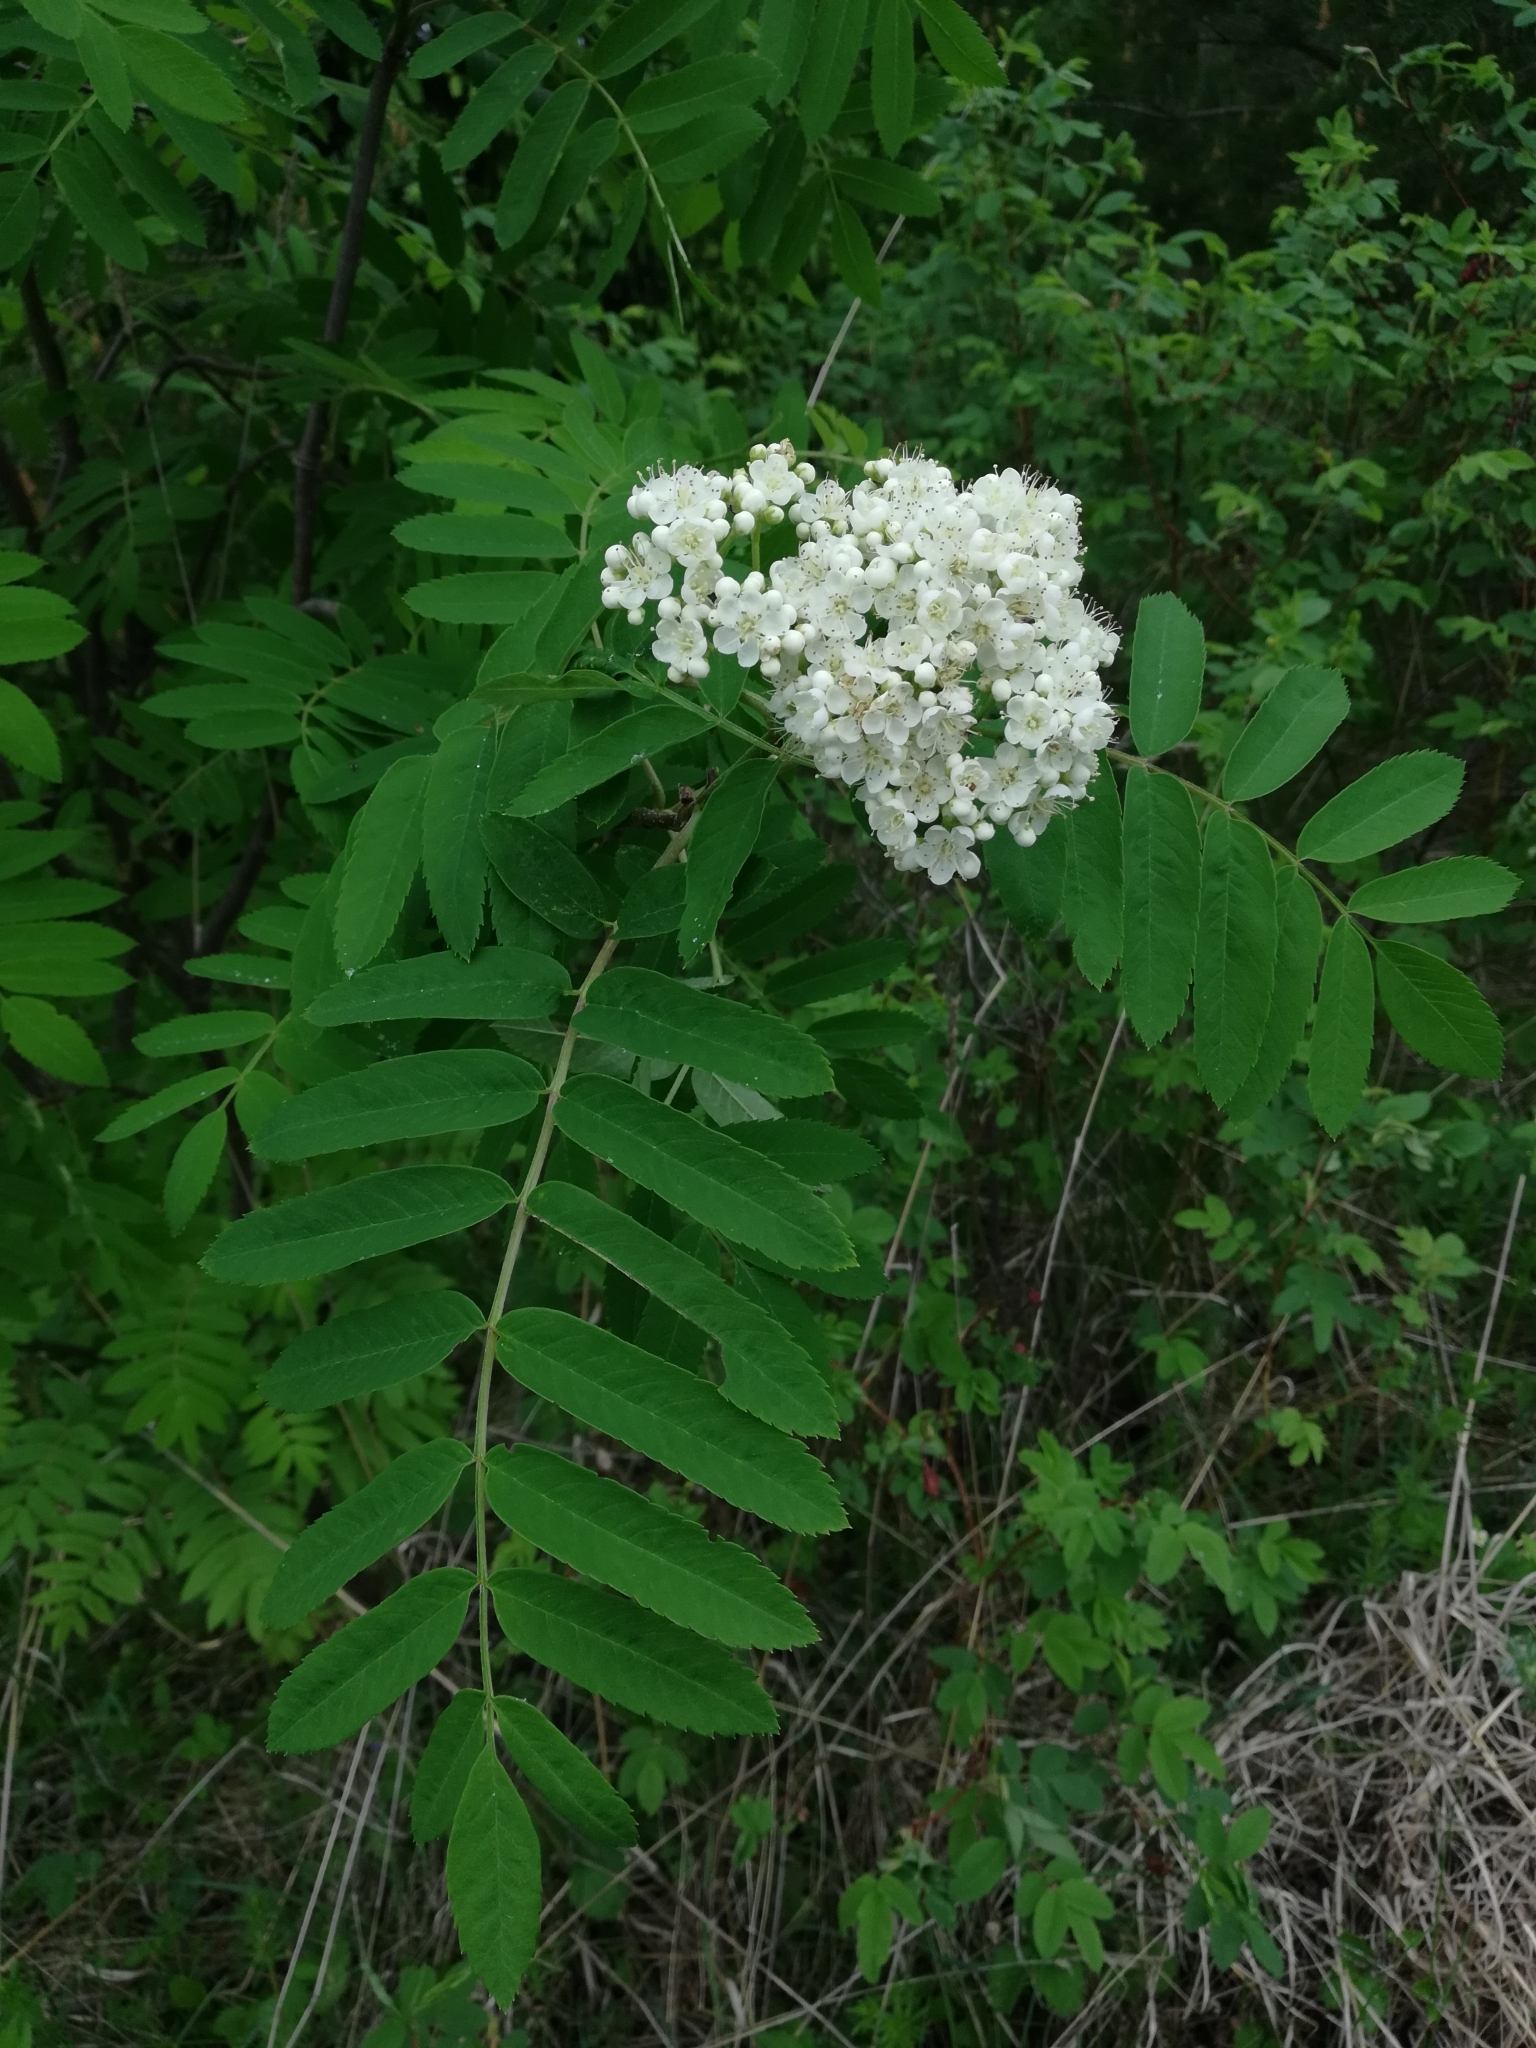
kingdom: Plantae
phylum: Tracheophyta
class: Magnoliopsida
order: Rosales
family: Rosaceae
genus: Sorbus
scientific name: Sorbus aucuparia
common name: Rowan
